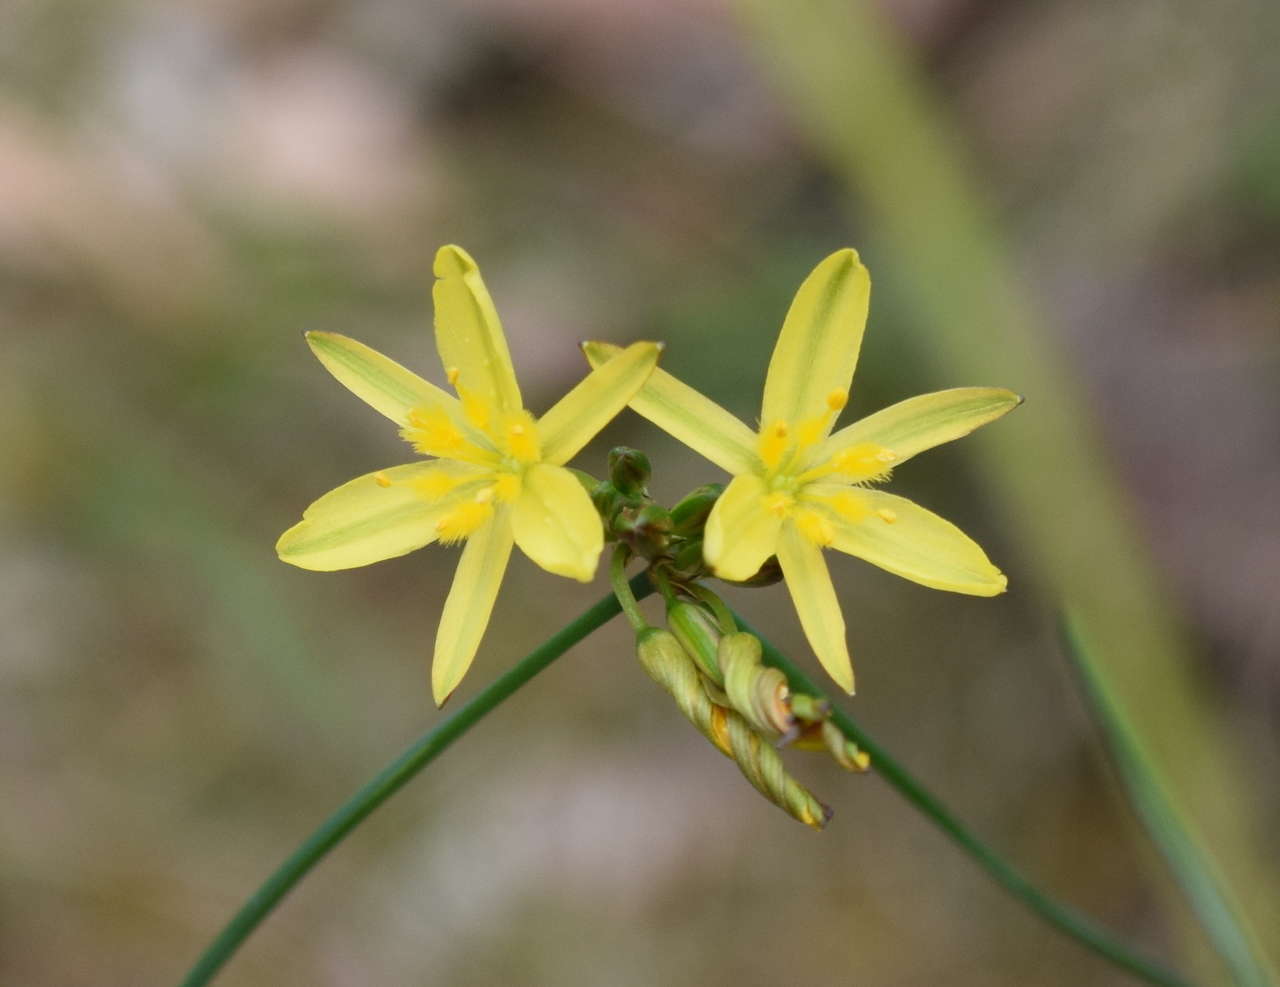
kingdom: Plantae
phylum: Tracheophyta
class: Liliopsida
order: Asparagales
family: Asphodelaceae
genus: Tricoryne
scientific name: Tricoryne elatior
